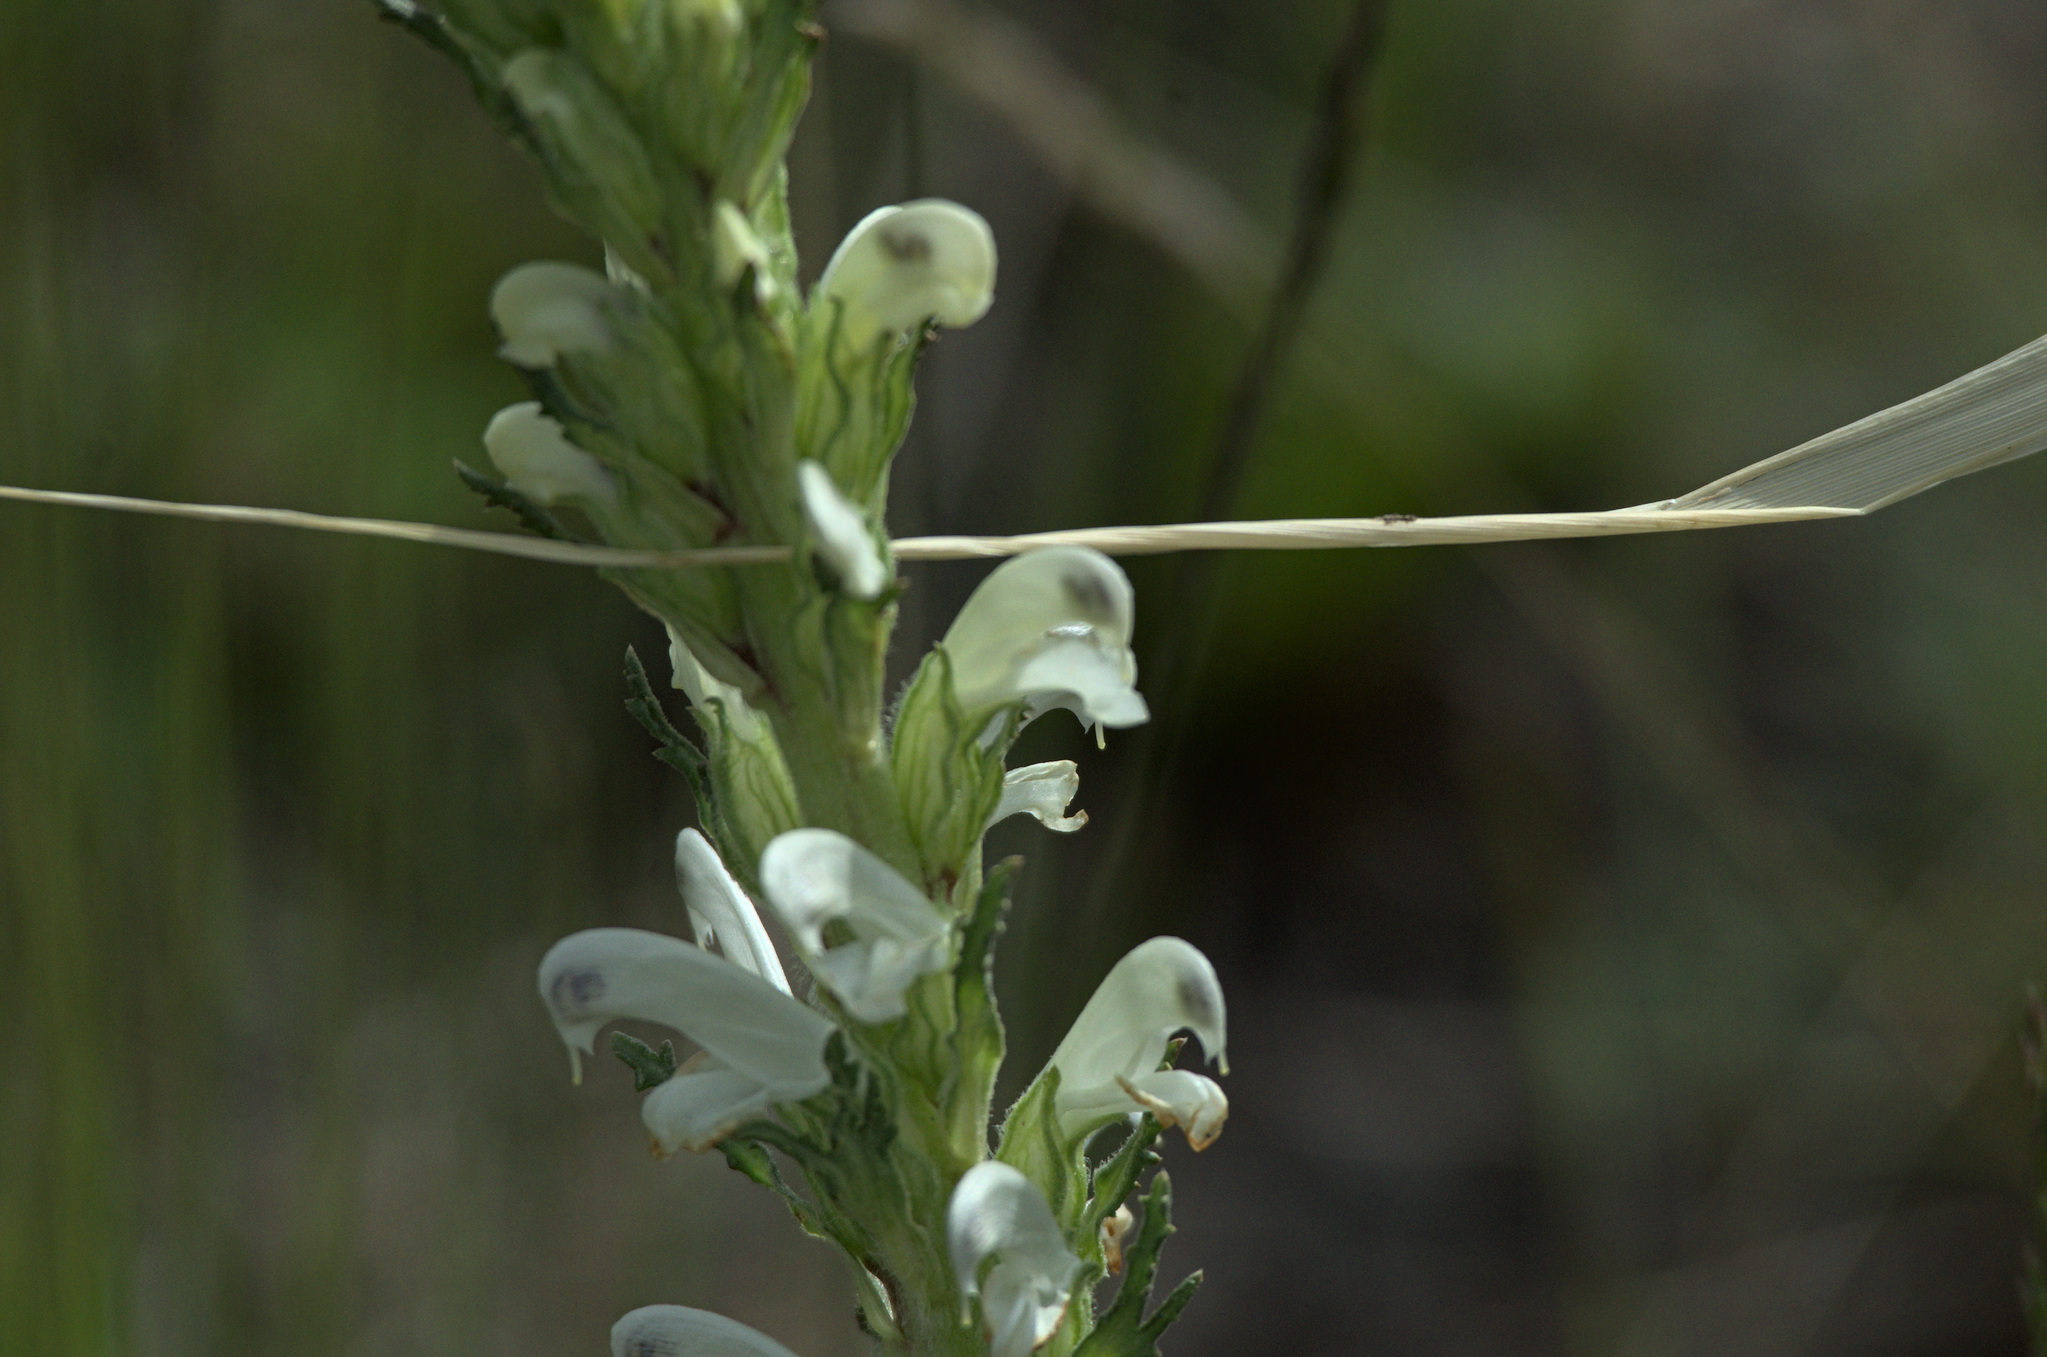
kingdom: Plantae
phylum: Tracheophyta
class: Magnoliopsida
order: Lamiales
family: Orobanchaceae
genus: Pedicularis
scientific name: Pedicularis achilleifolia
